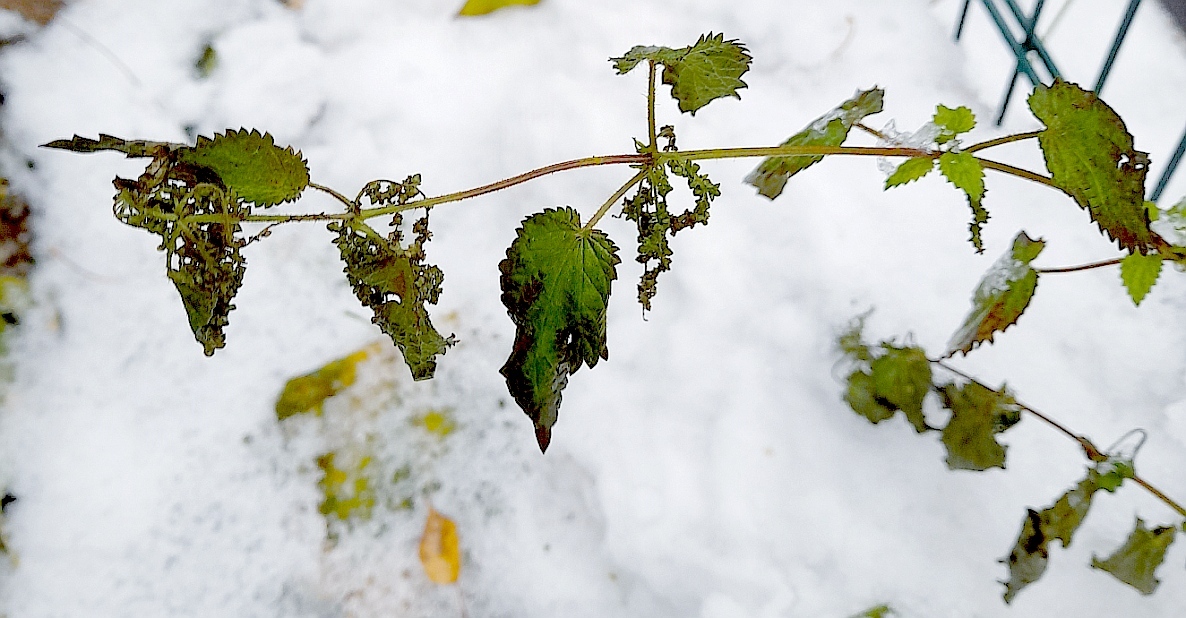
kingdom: Plantae
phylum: Tracheophyta
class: Magnoliopsida
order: Rosales
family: Urticaceae
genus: Urtica
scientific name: Urtica dioica
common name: Common nettle
